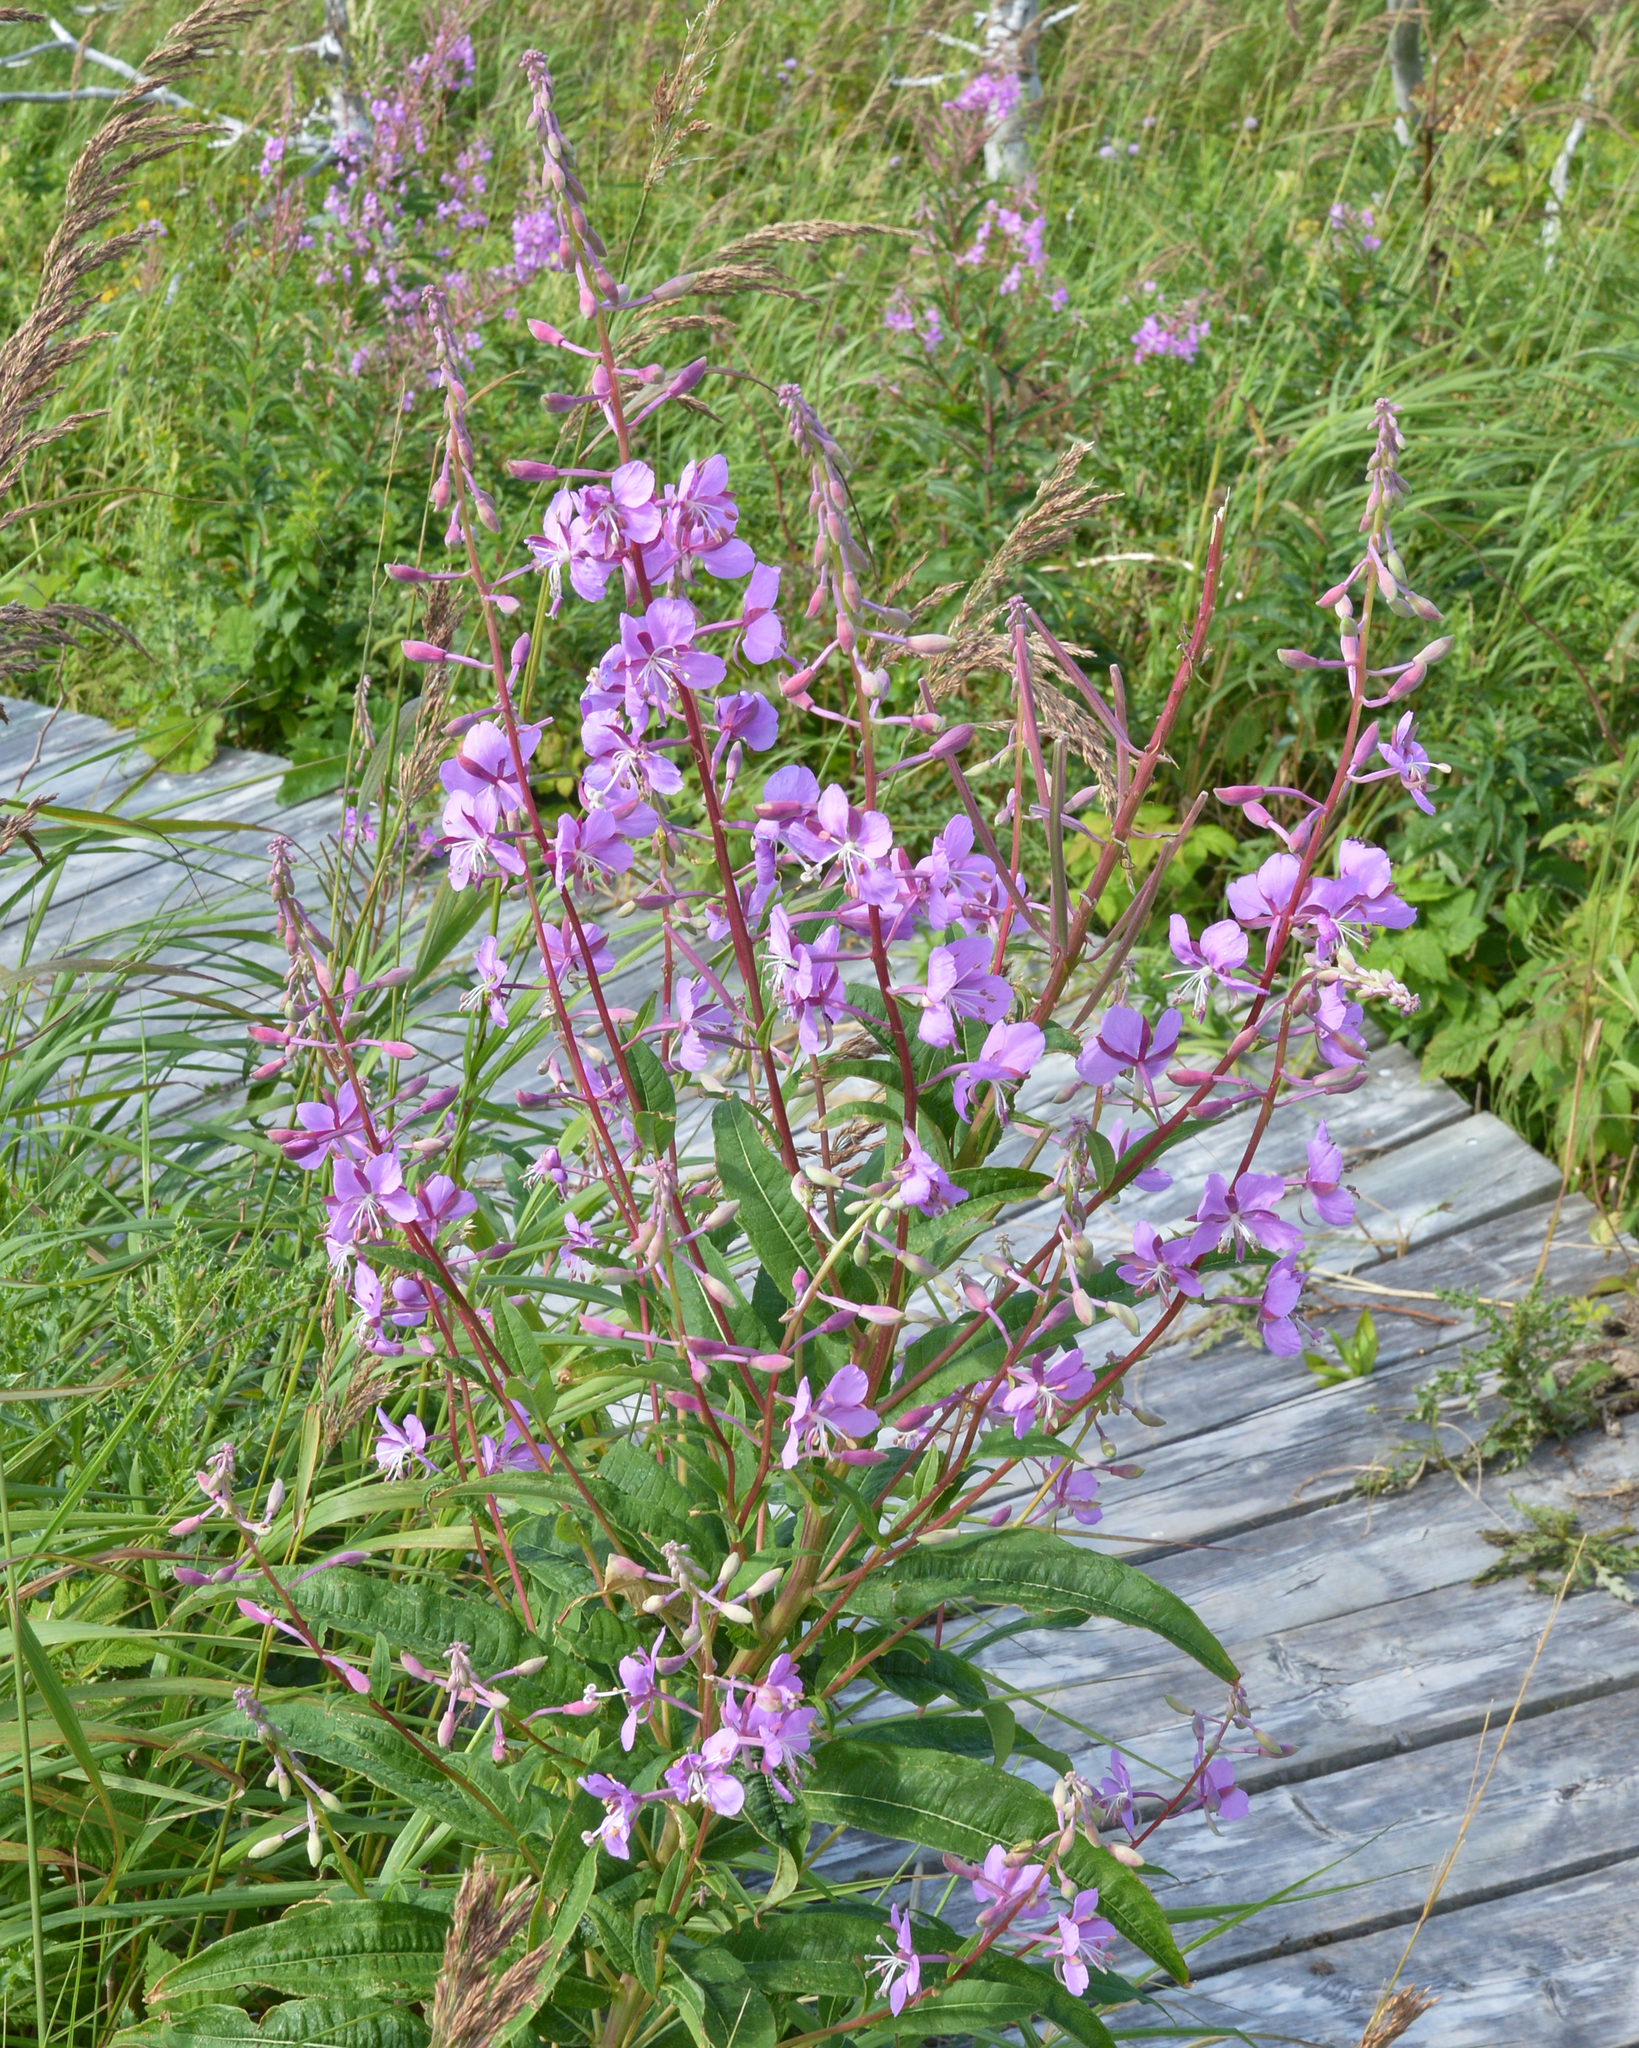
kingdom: Plantae
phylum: Tracheophyta
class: Magnoliopsida
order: Myrtales
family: Onagraceae
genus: Chamaenerion
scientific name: Chamaenerion angustifolium
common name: Fireweed
